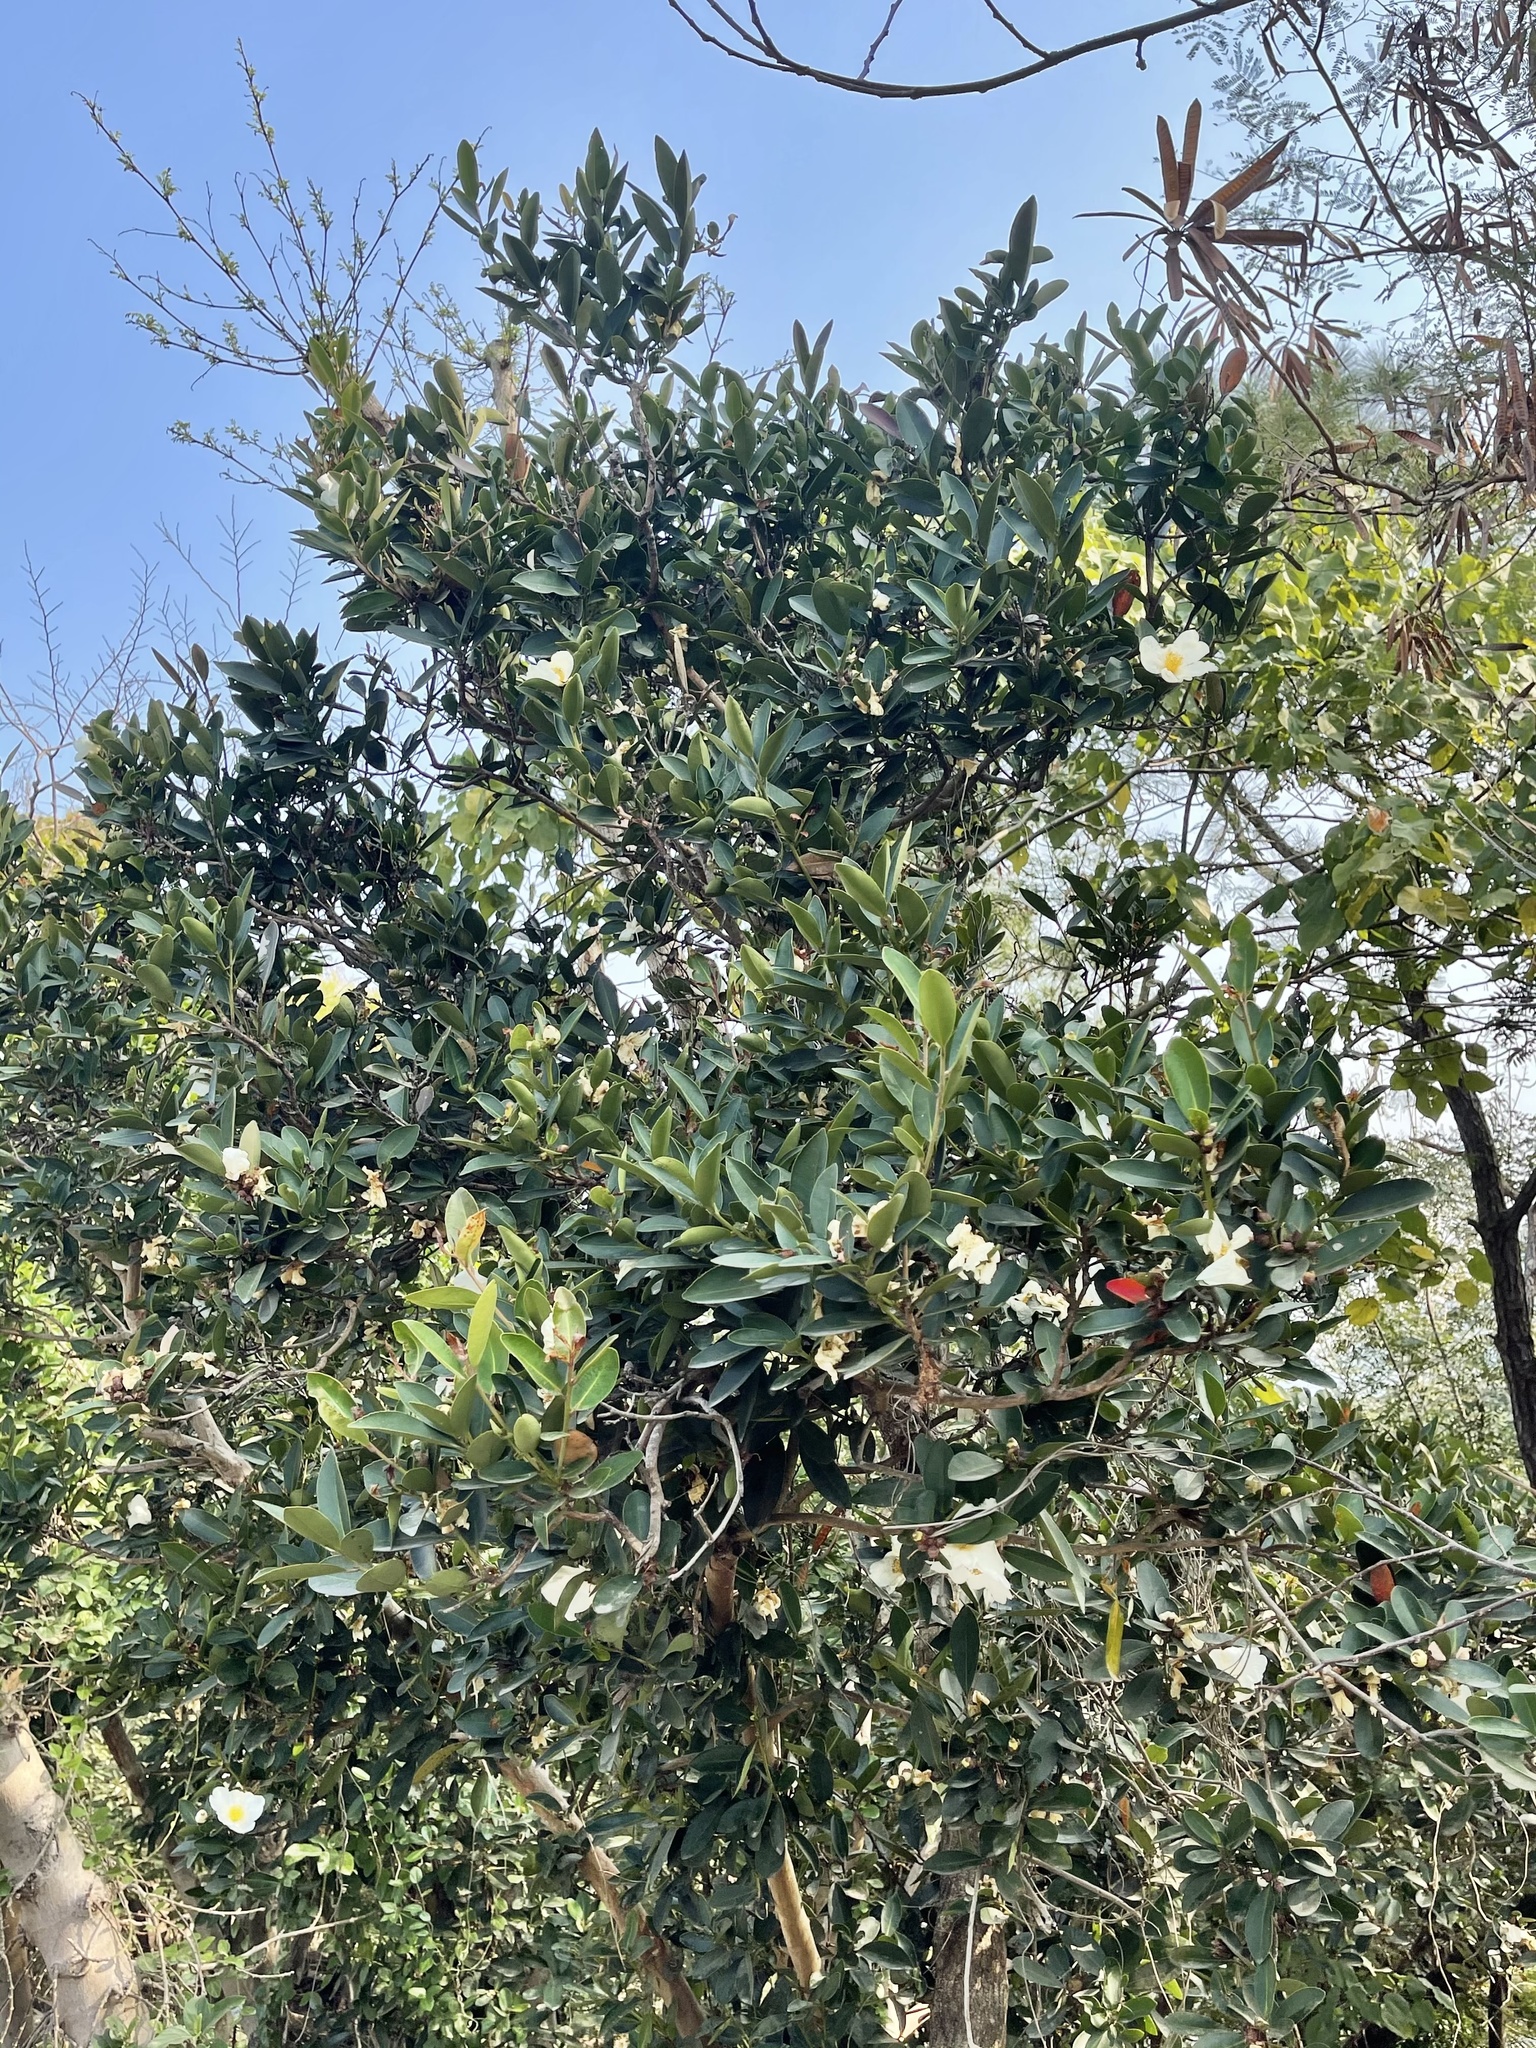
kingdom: Plantae
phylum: Tracheophyta
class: Magnoliopsida
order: Ericales
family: Theaceae
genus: Polyspora
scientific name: Polyspora axillaris
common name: Fried egg tree
